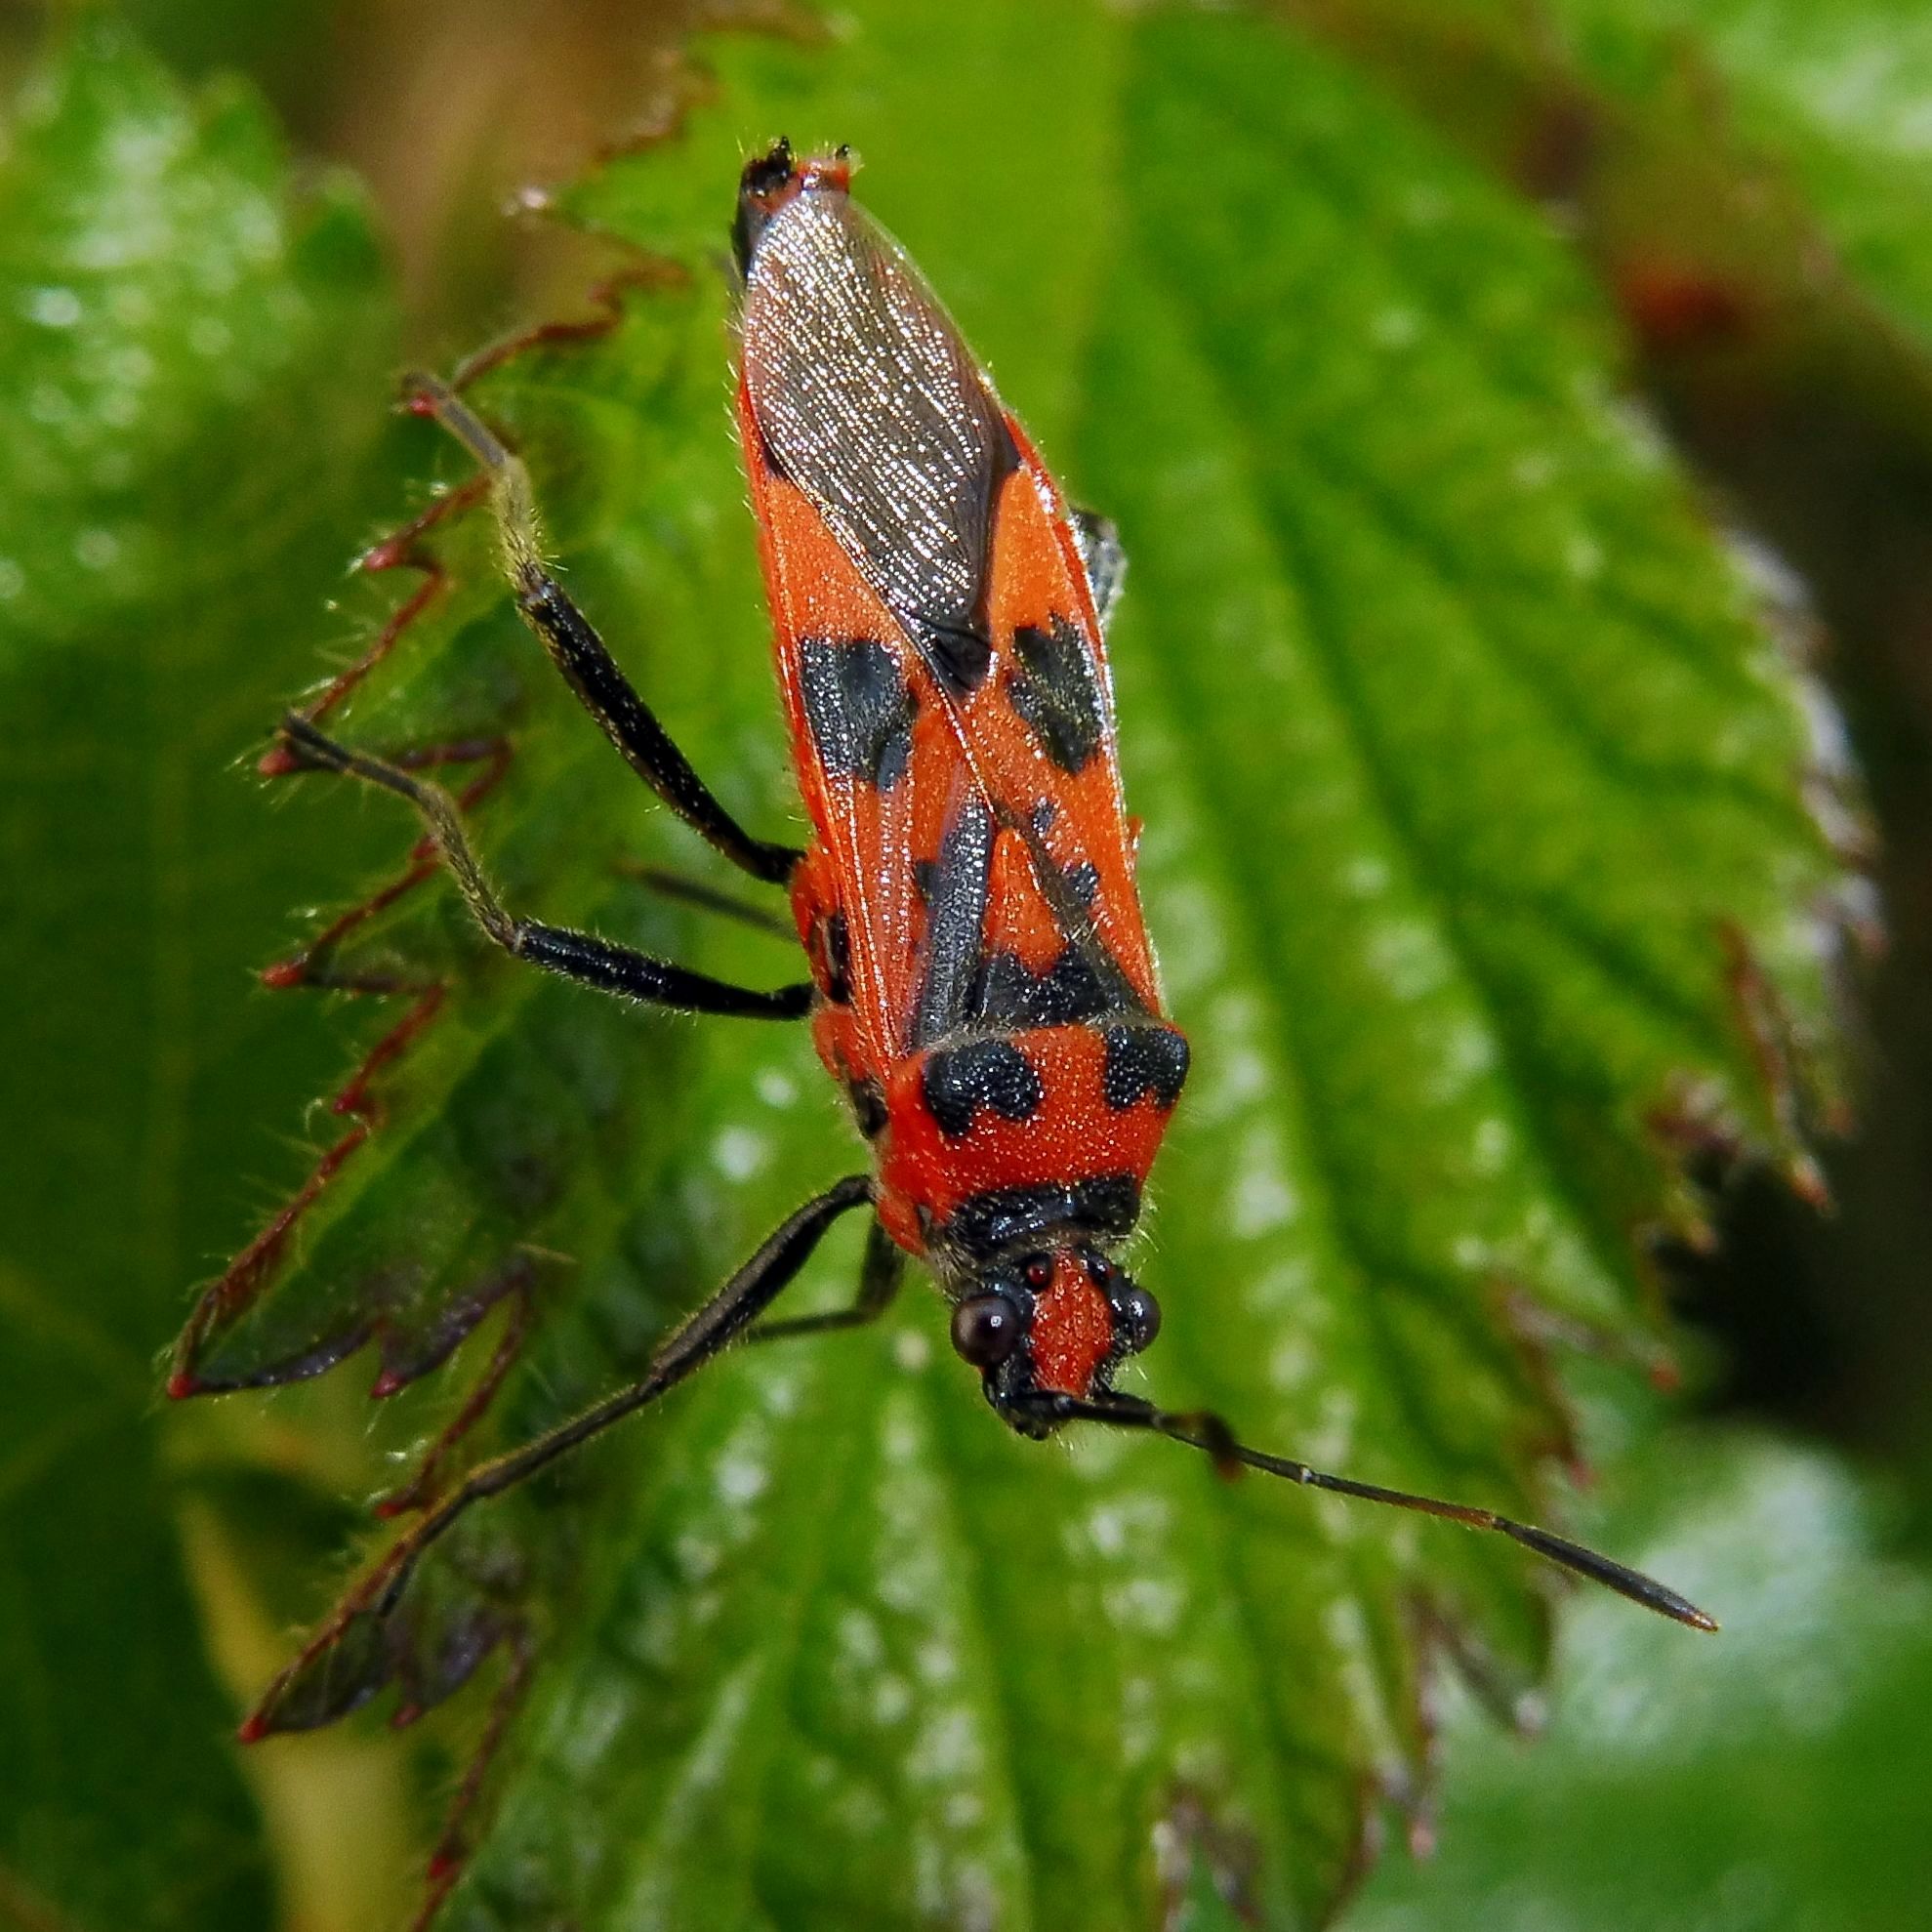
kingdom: Animalia
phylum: Arthropoda
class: Insecta
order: Hemiptera
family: Rhopalidae
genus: Corizus
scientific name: Corizus hyoscyami
